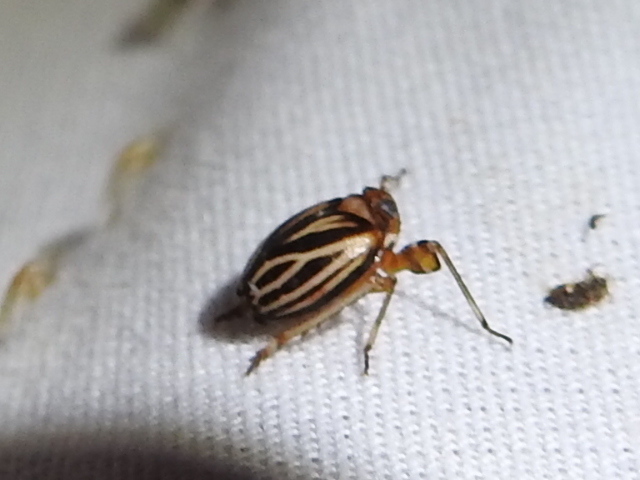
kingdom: Animalia
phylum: Arthropoda
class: Insecta
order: Hemiptera
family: Achilidae
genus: Isodaemon
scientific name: Isodaemon orontes
